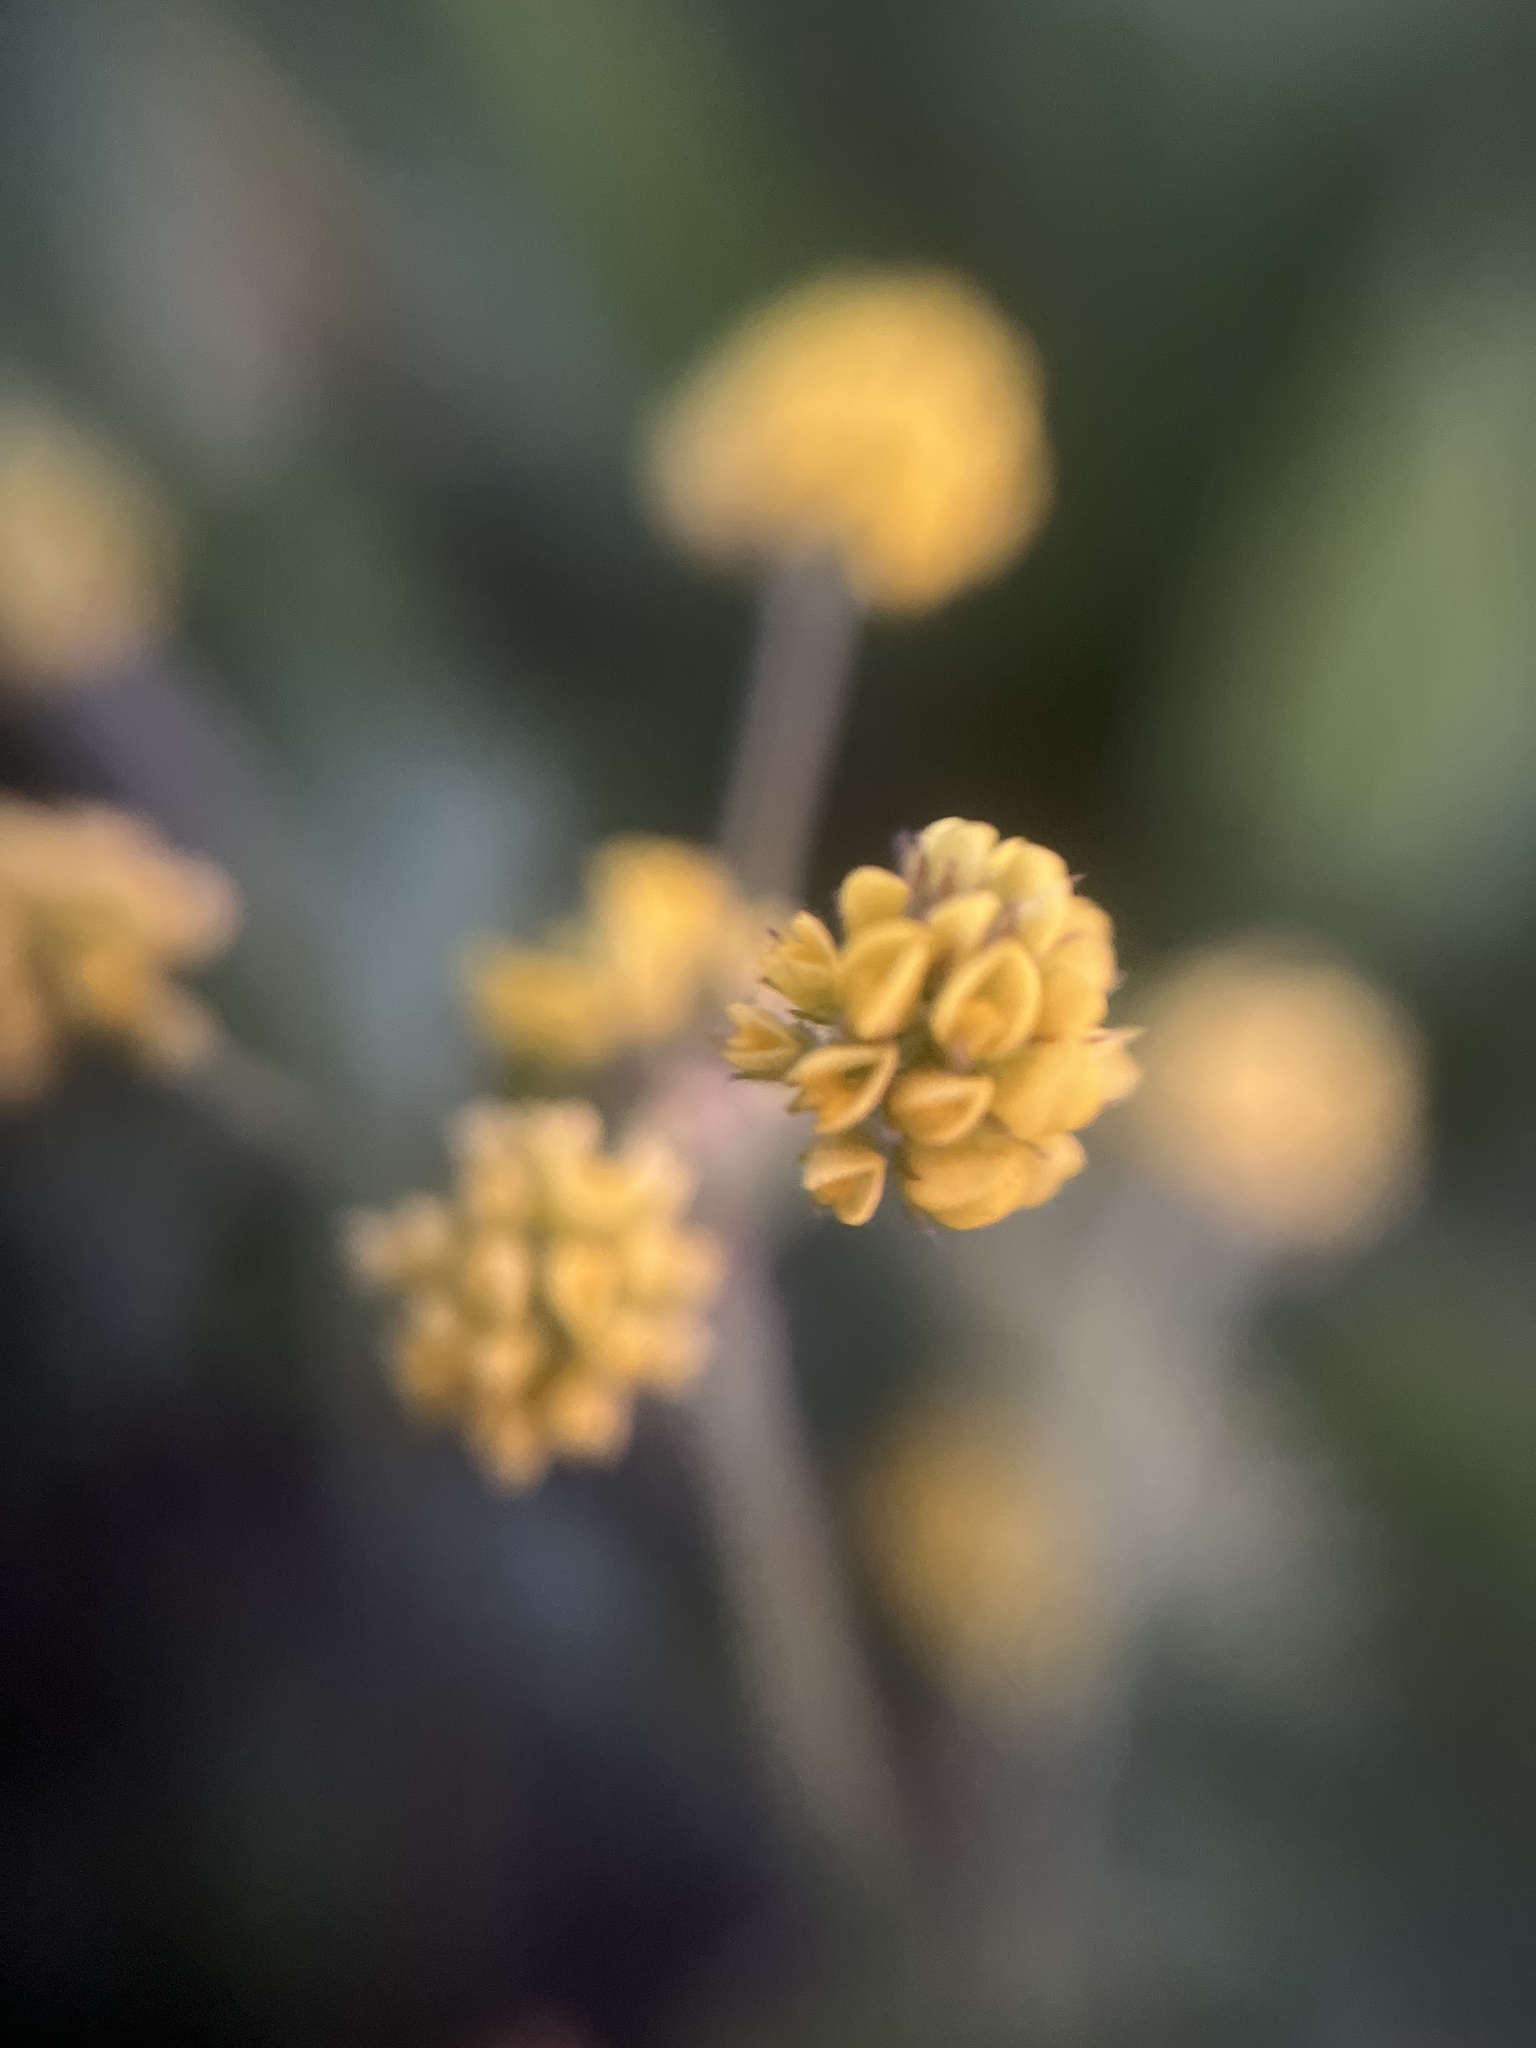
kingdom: Plantae
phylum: Tracheophyta
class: Magnoliopsida
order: Fabales
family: Fabaceae
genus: Medicago
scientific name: Medicago lupulina
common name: Black medick
